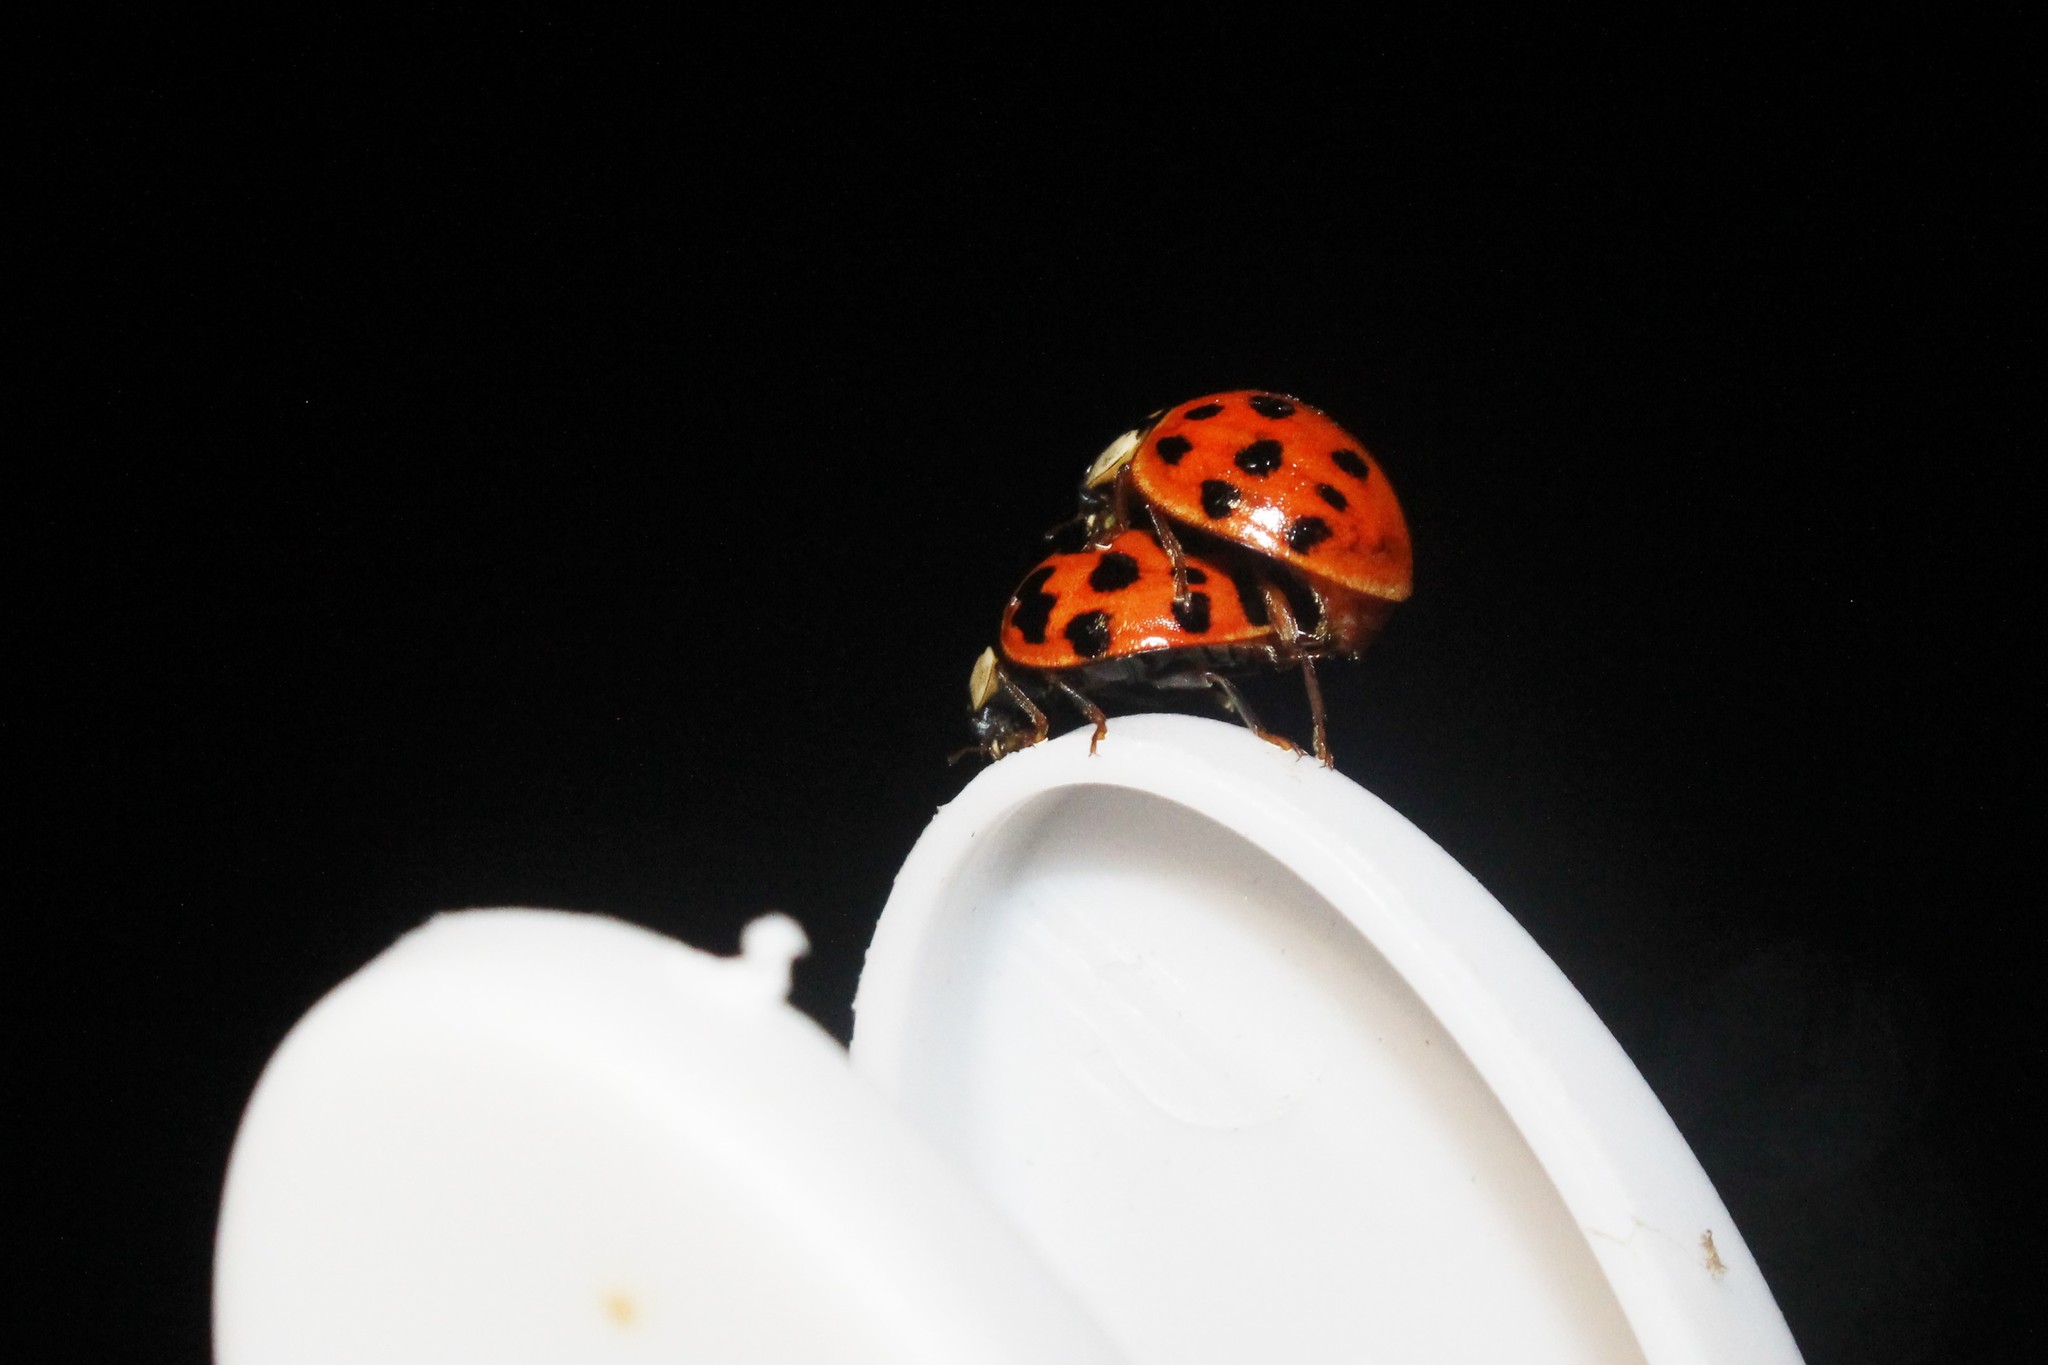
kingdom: Animalia
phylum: Arthropoda
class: Insecta
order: Coleoptera
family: Coccinellidae
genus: Harmonia
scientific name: Harmonia axyridis
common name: Harlequin ladybird
